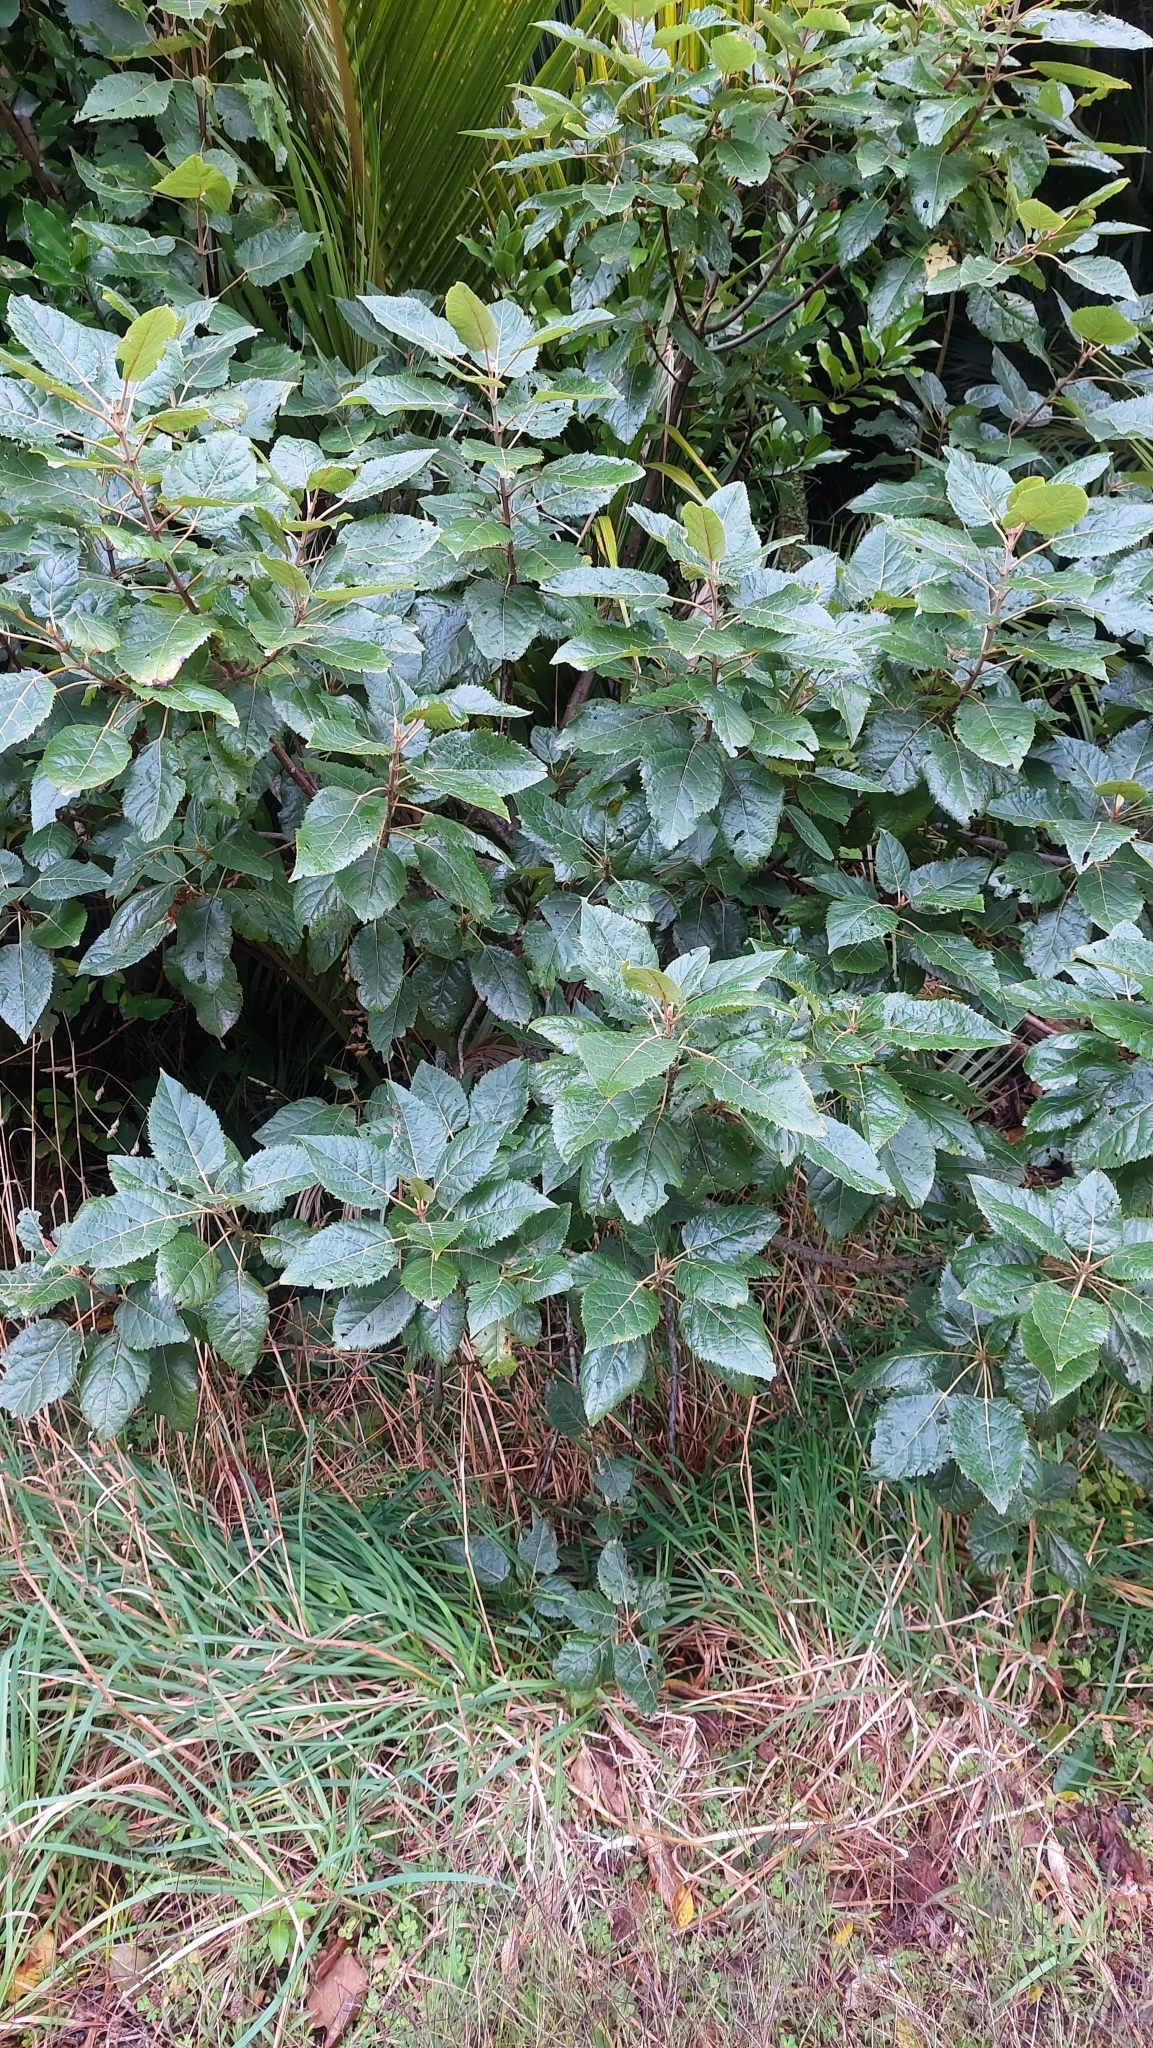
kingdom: Plantae
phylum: Tracheophyta
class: Magnoliopsida
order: Oxalidales
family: Elaeocarpaceae
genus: Aristotelia
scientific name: Aristotelia serrata
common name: New zealand wineberry
